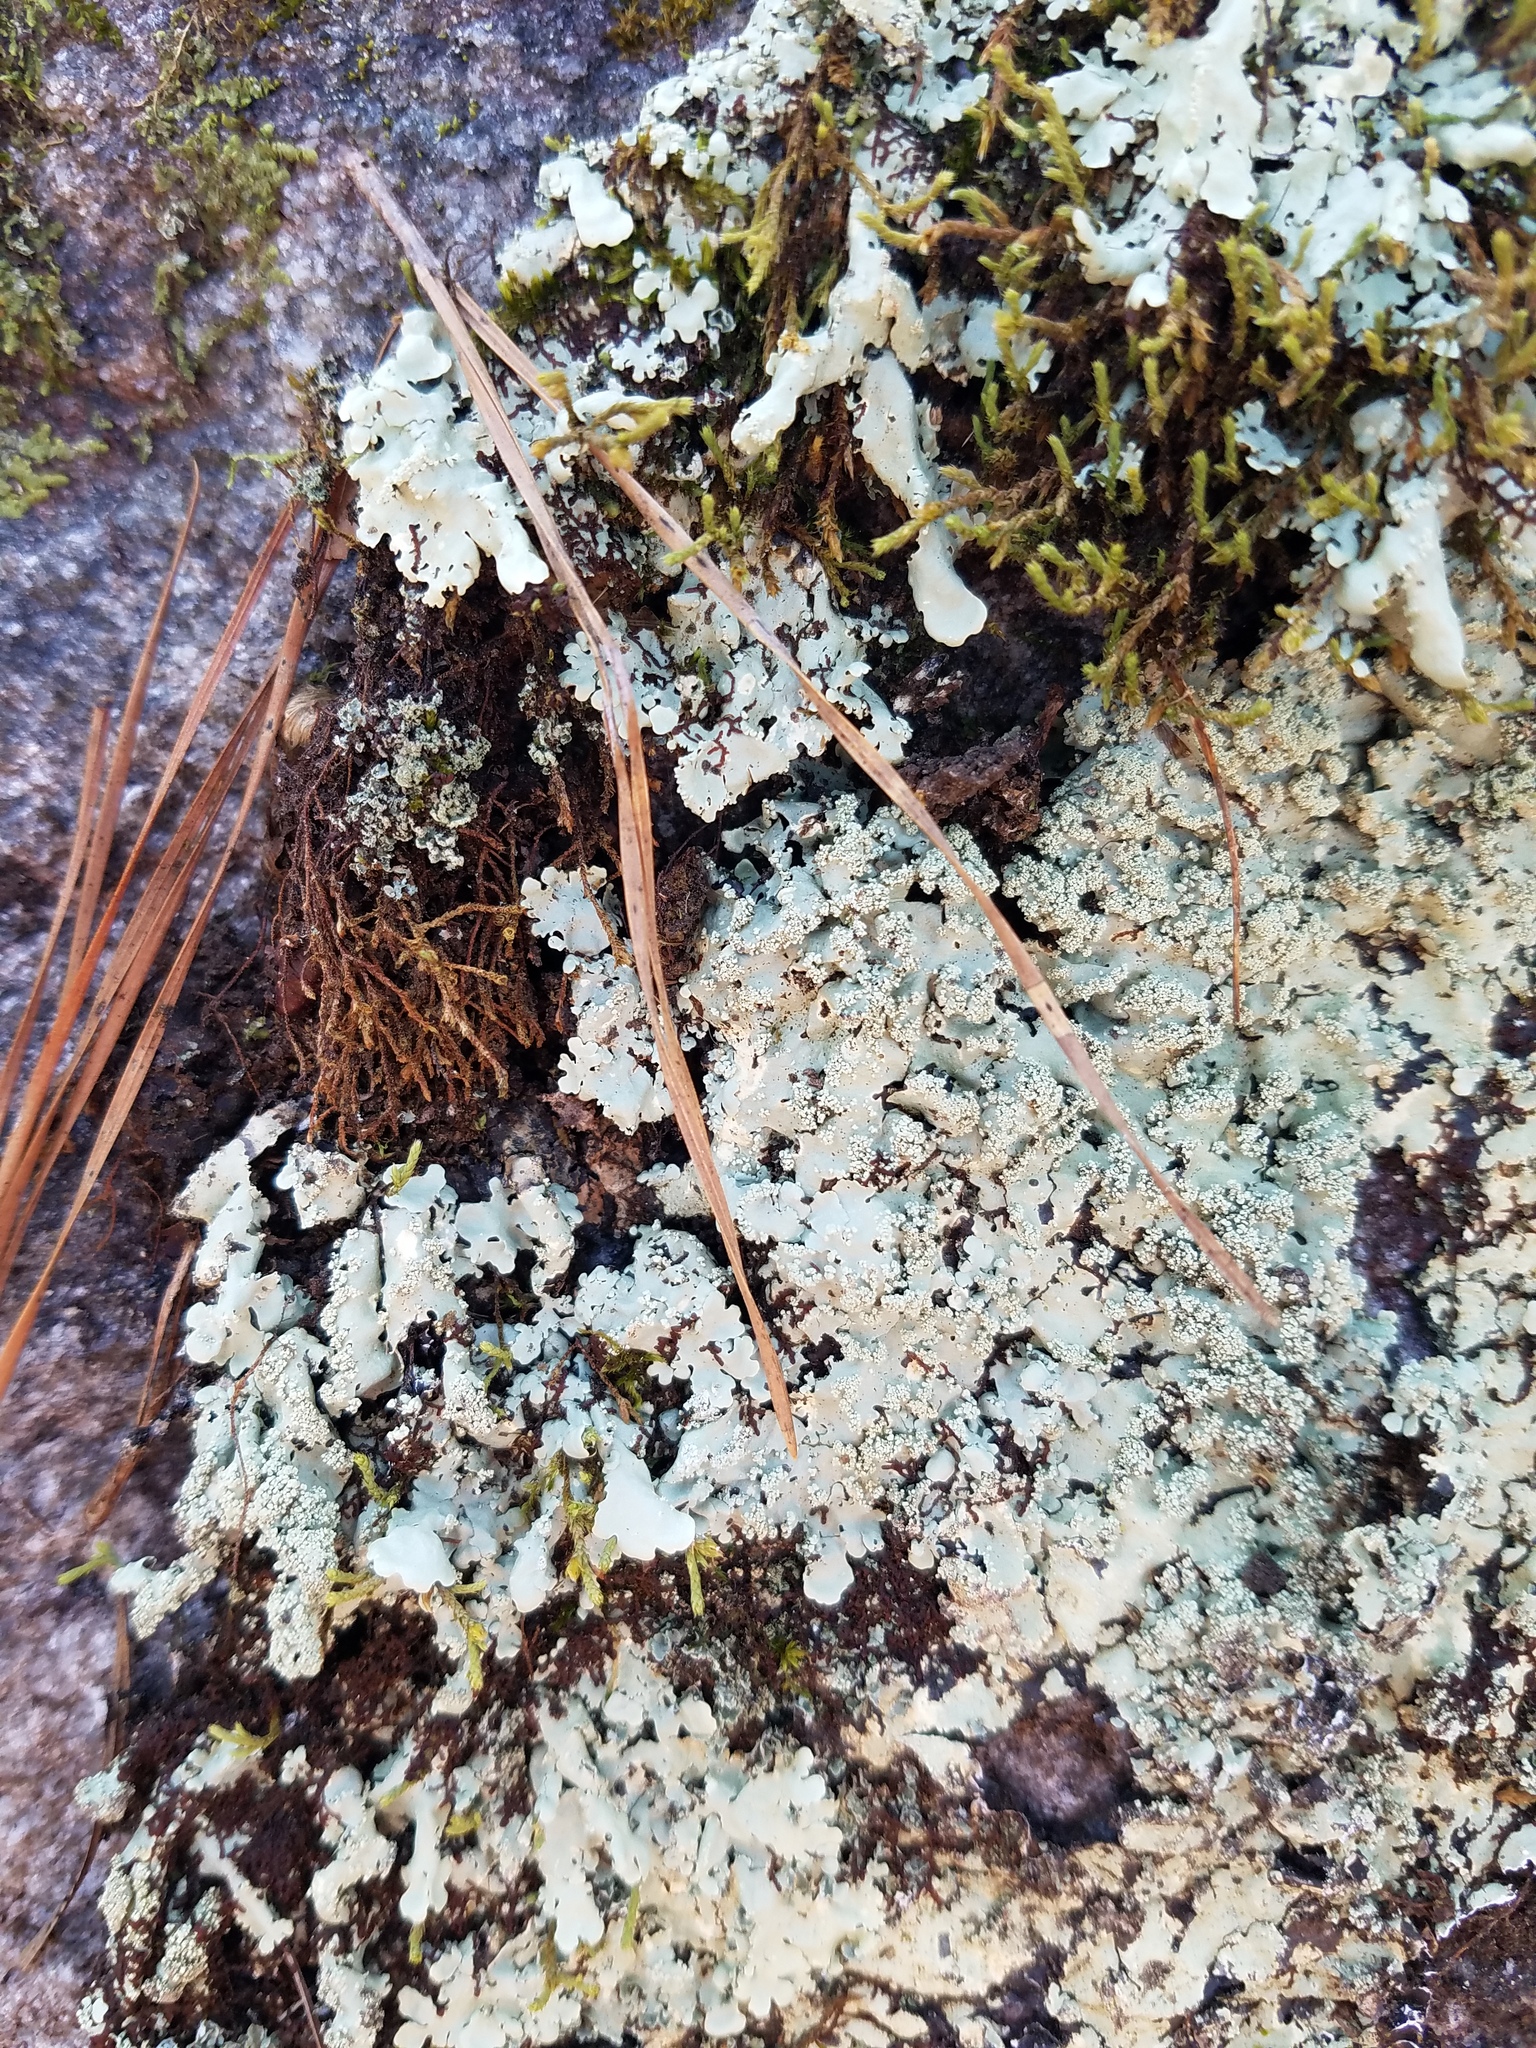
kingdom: Fungi
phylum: Ascomycota
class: Lecanoromycetes
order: Lecanorales
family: Parmeliaceae
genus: Flavoparmelia
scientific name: Flavoparmelia caperata
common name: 40-mile per hour lichen
